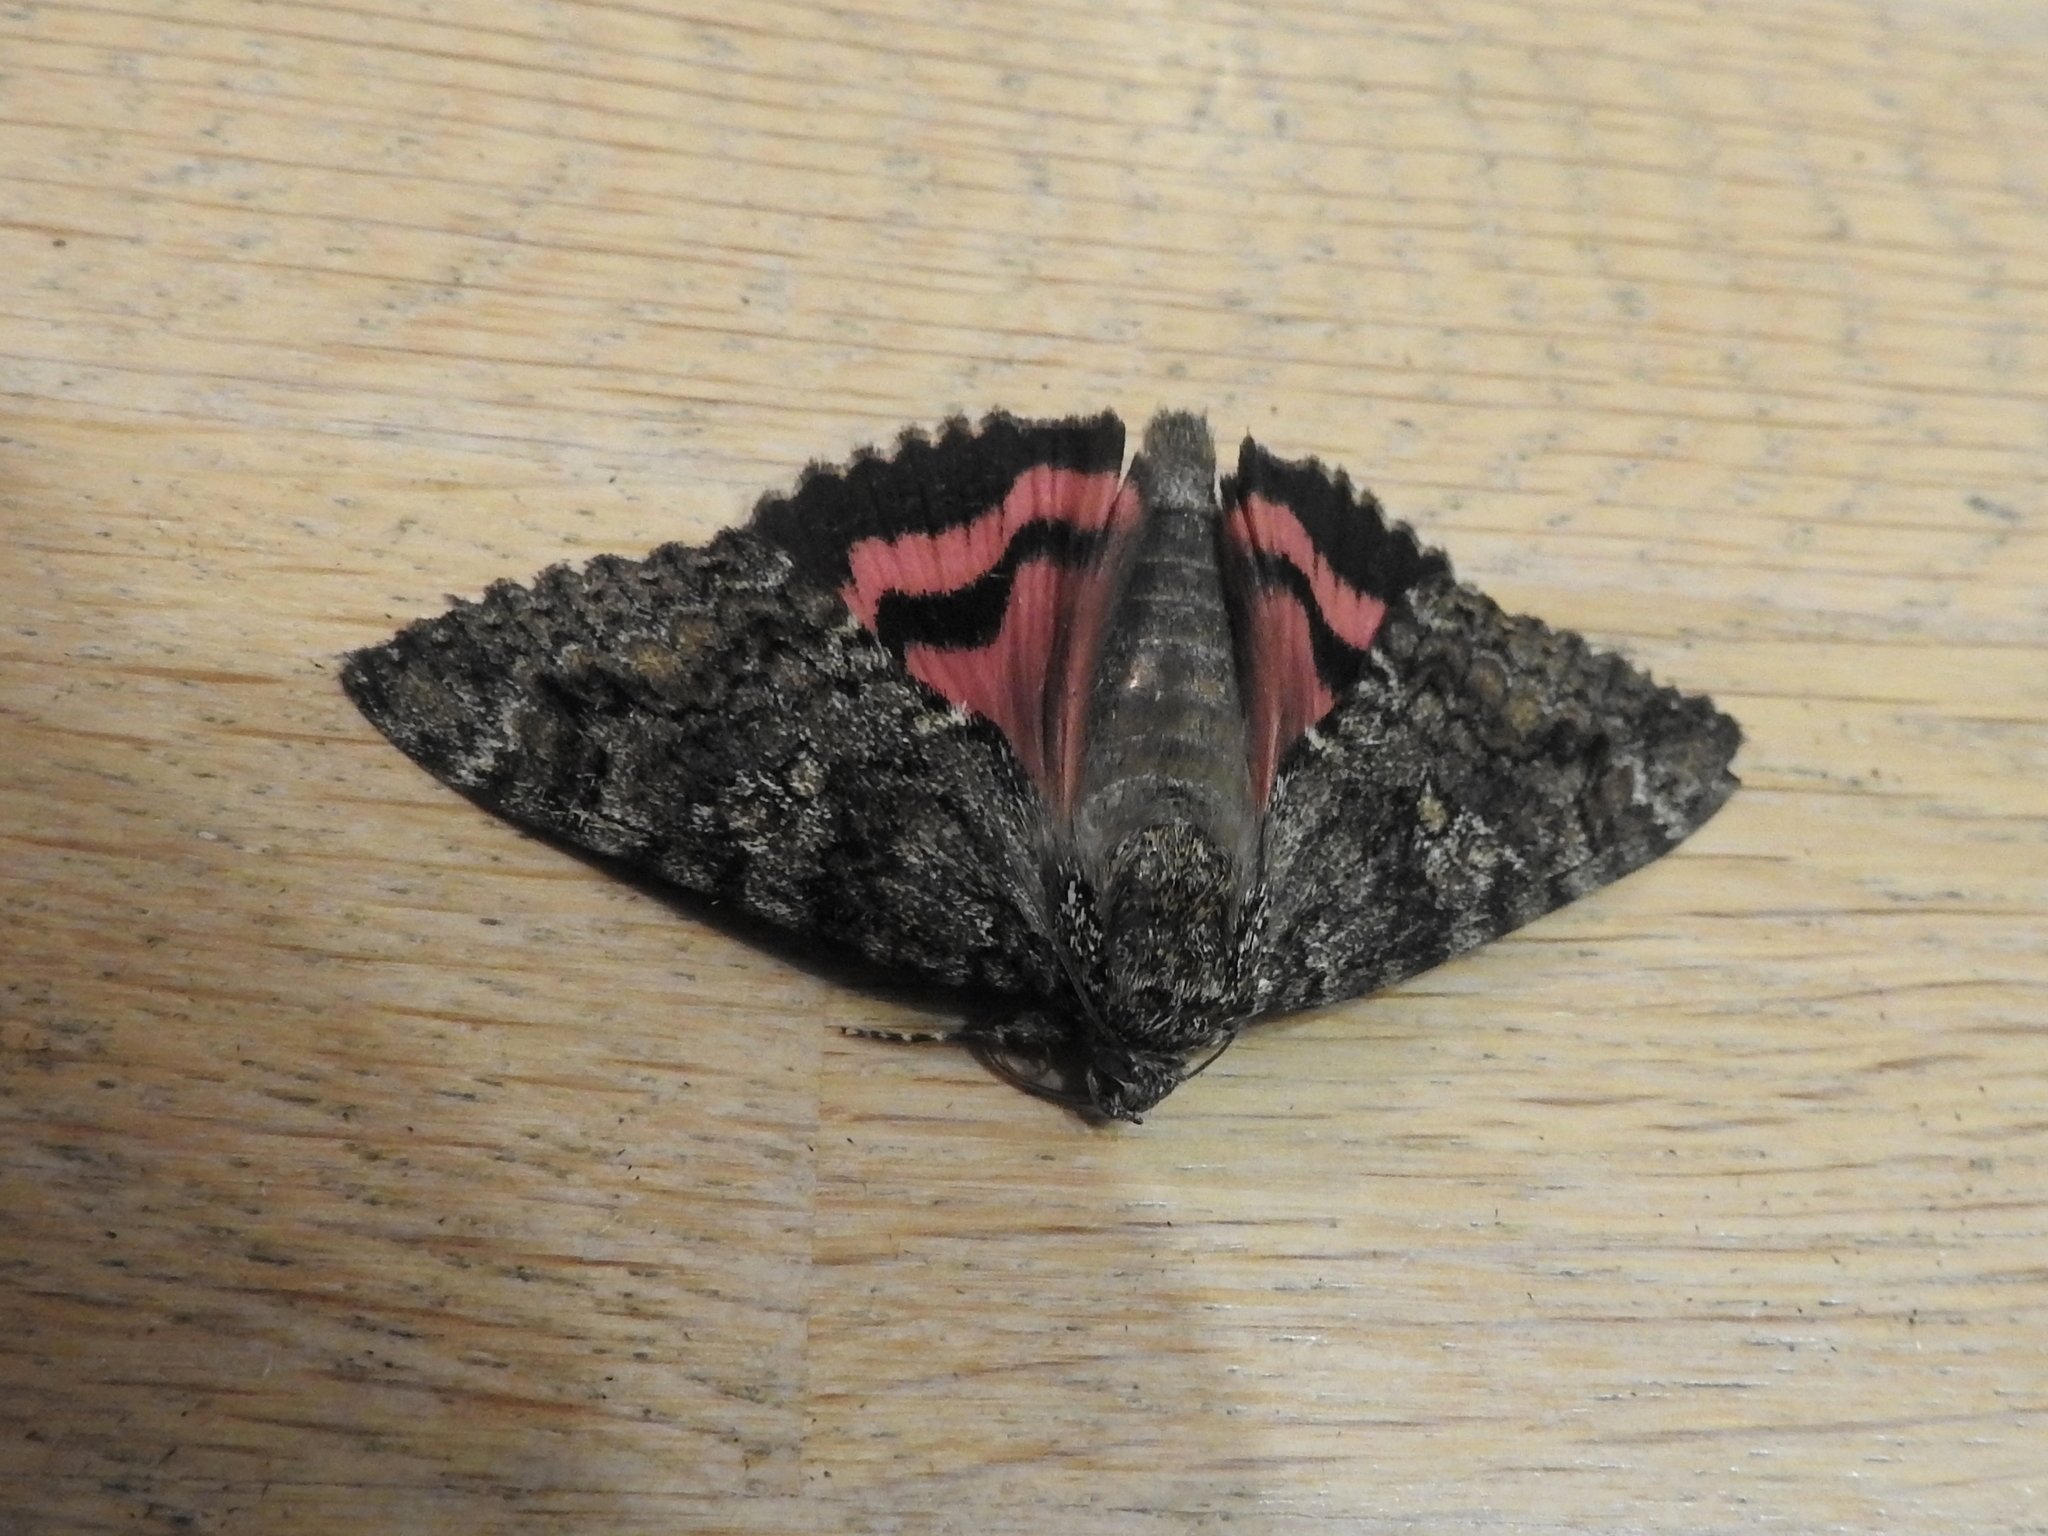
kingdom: Animalia
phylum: Arthropoda
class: Insecta
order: Lepidoptera
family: Erebidae
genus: Catocala
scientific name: Catocala sponsa
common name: Dark crimson underwing
